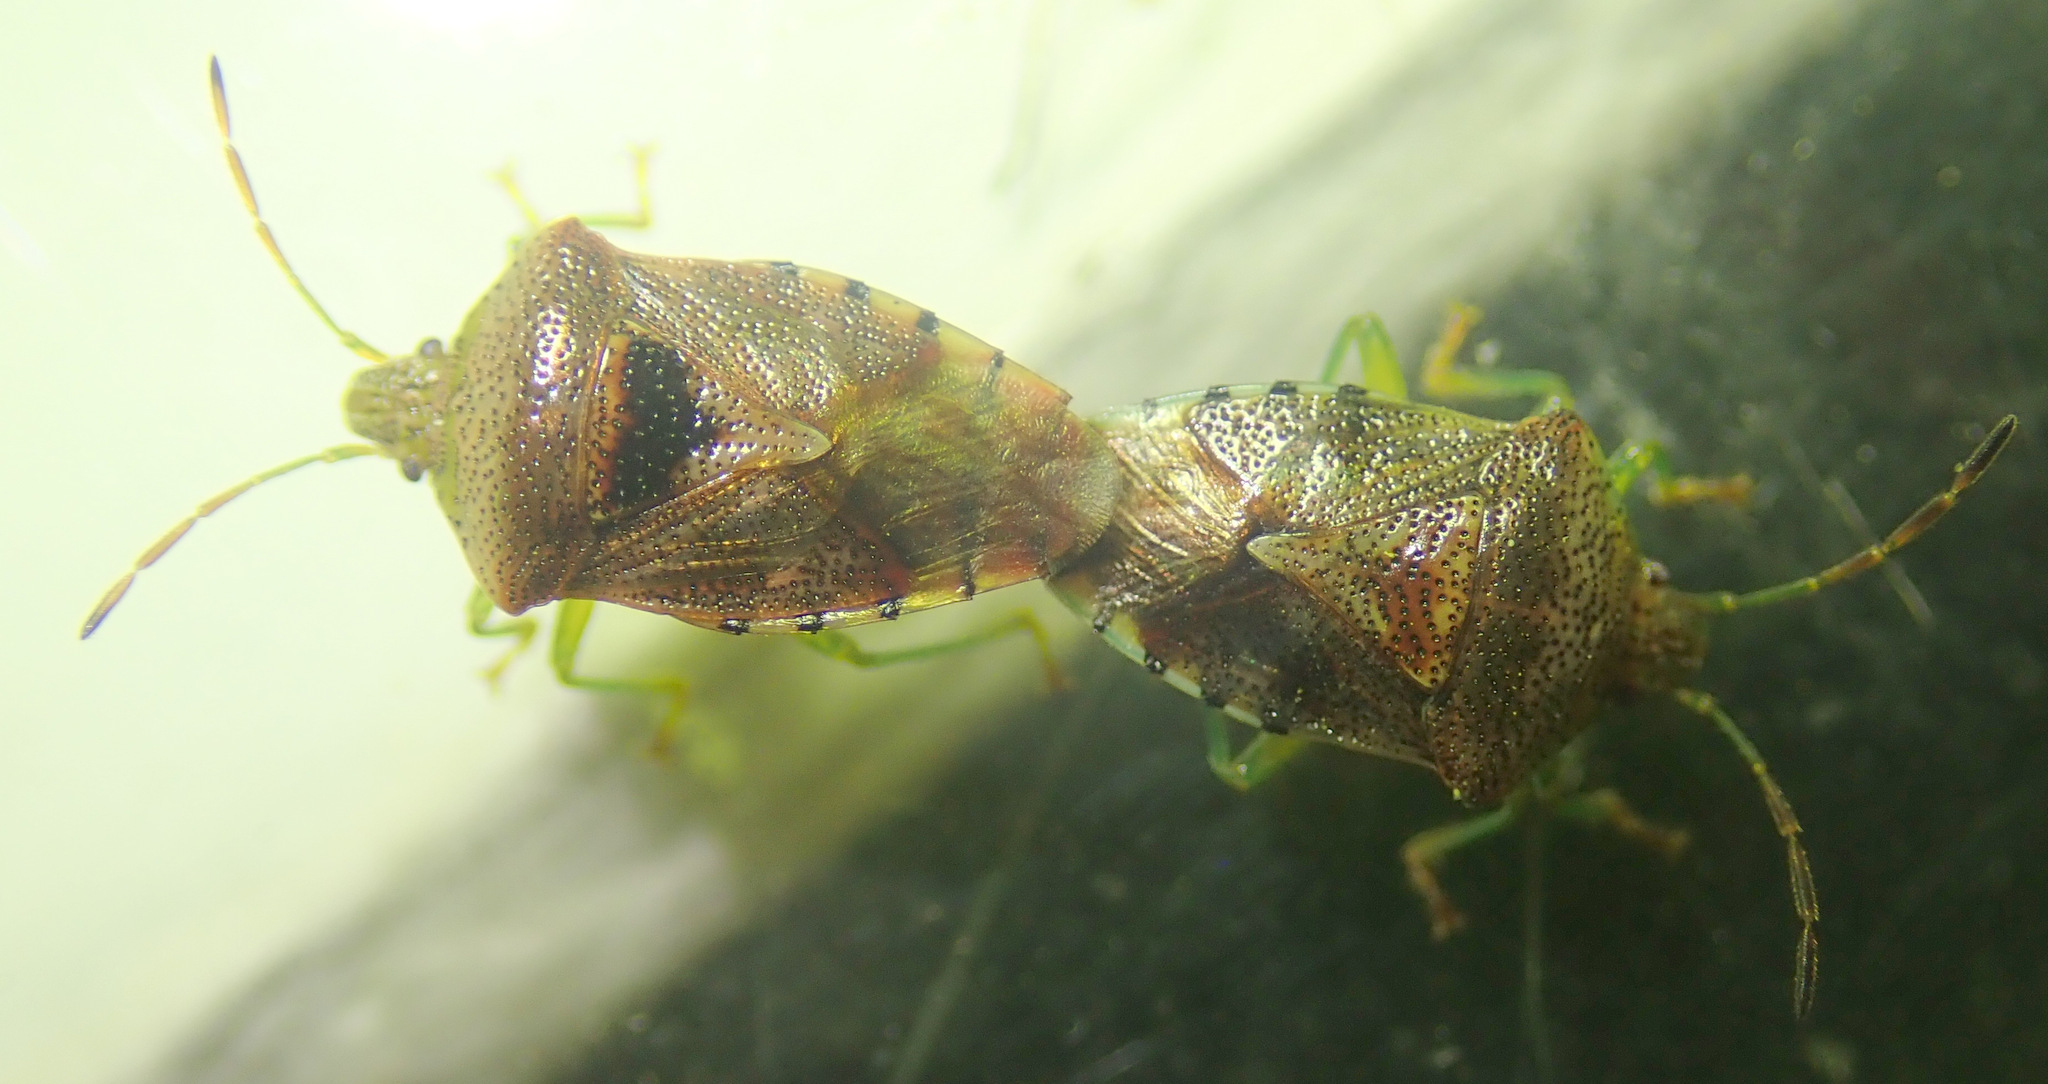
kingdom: Animalia
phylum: Arthropoda
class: Insecta
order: Hemiptera
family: Acanthosomatidae
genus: Elasmucha
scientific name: Elasmucha grisea
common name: Parent bug
